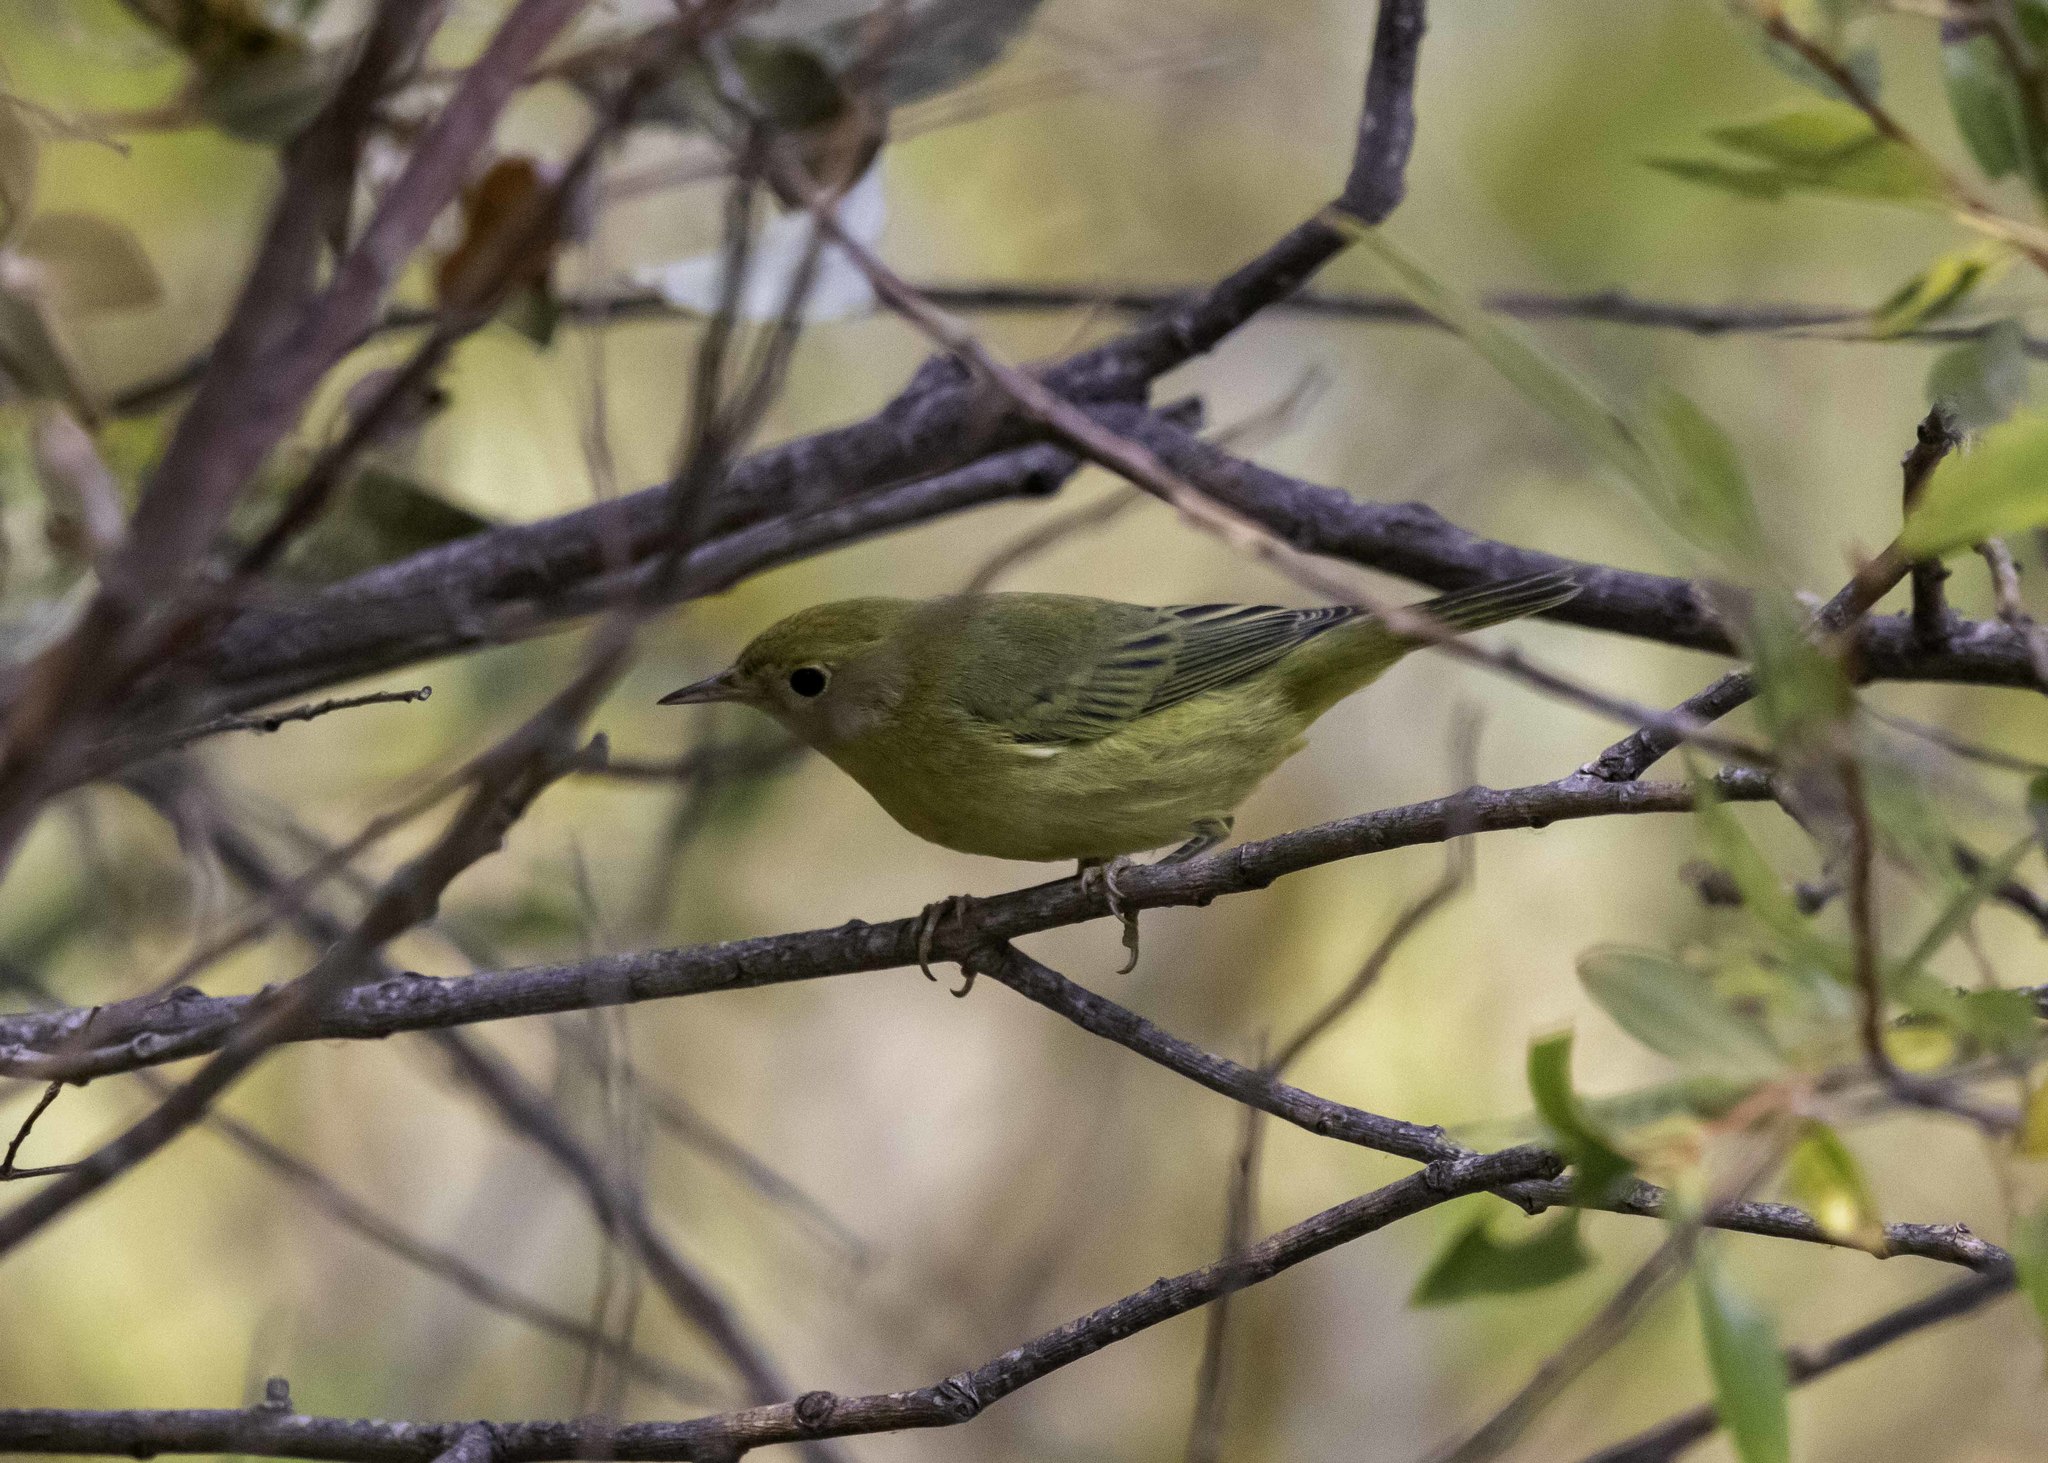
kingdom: Animalia
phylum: Chordata
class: Aves
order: Passeriformes
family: Parulidae
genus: Setophaga
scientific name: Setophaga petechia
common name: Yellow warbler
